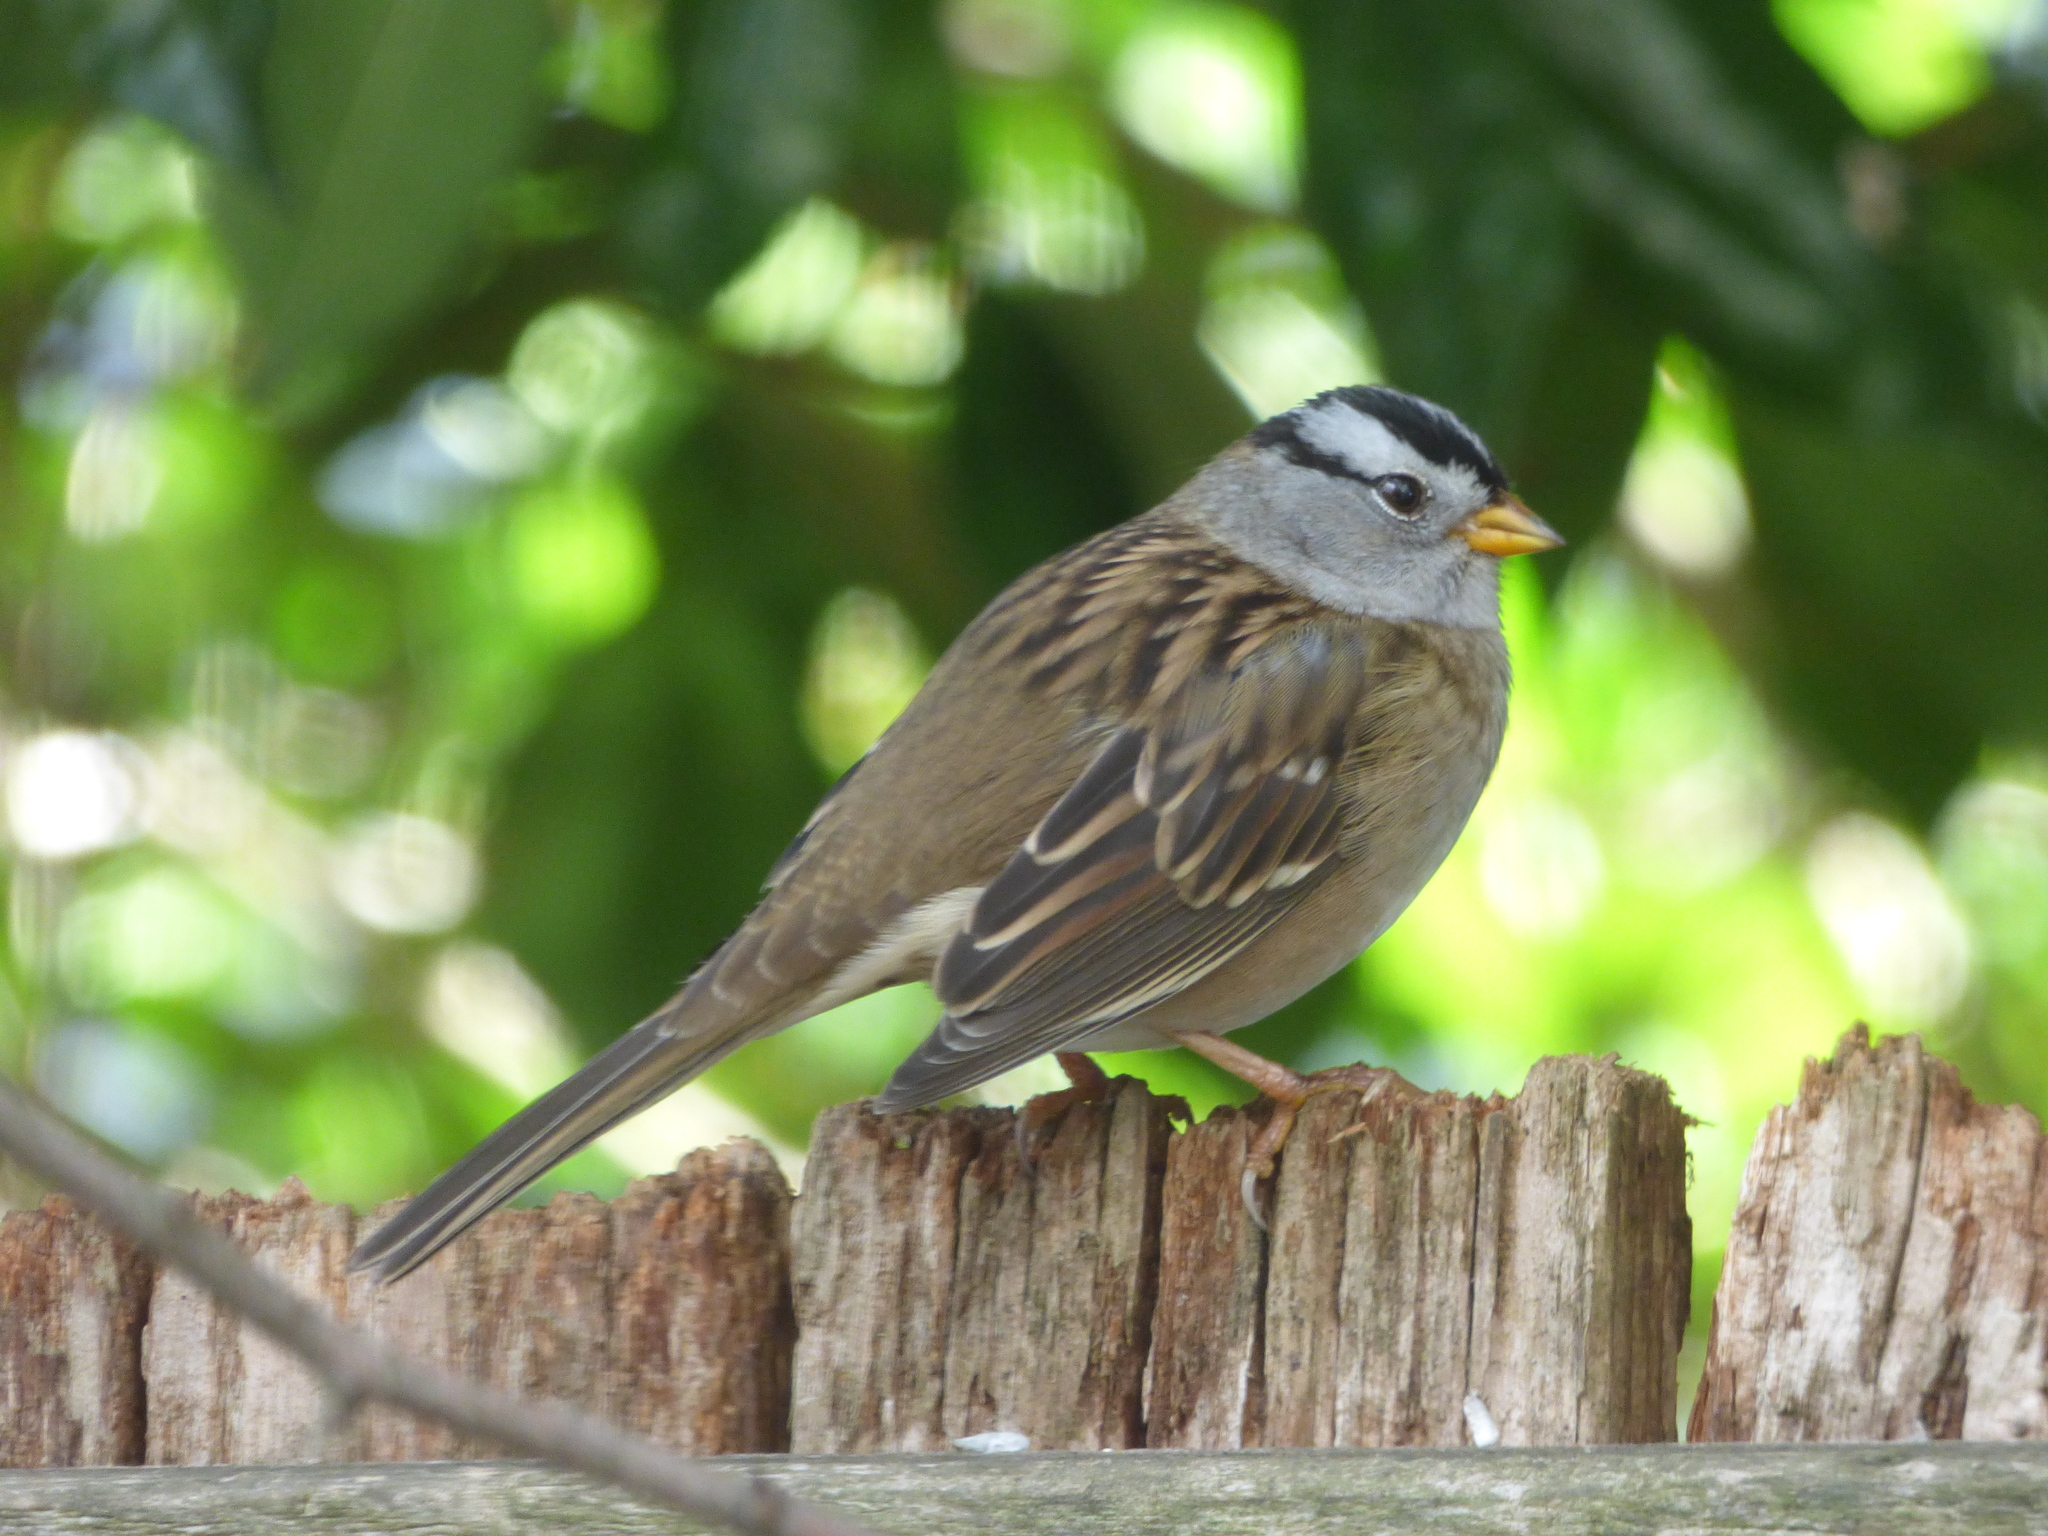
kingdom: Animalia
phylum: Chordata
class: Aves
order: Passeriformes
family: Passerellidae
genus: Zonotrichia
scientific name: Zonotrichia leucophrys
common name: White-crowned sparrow
